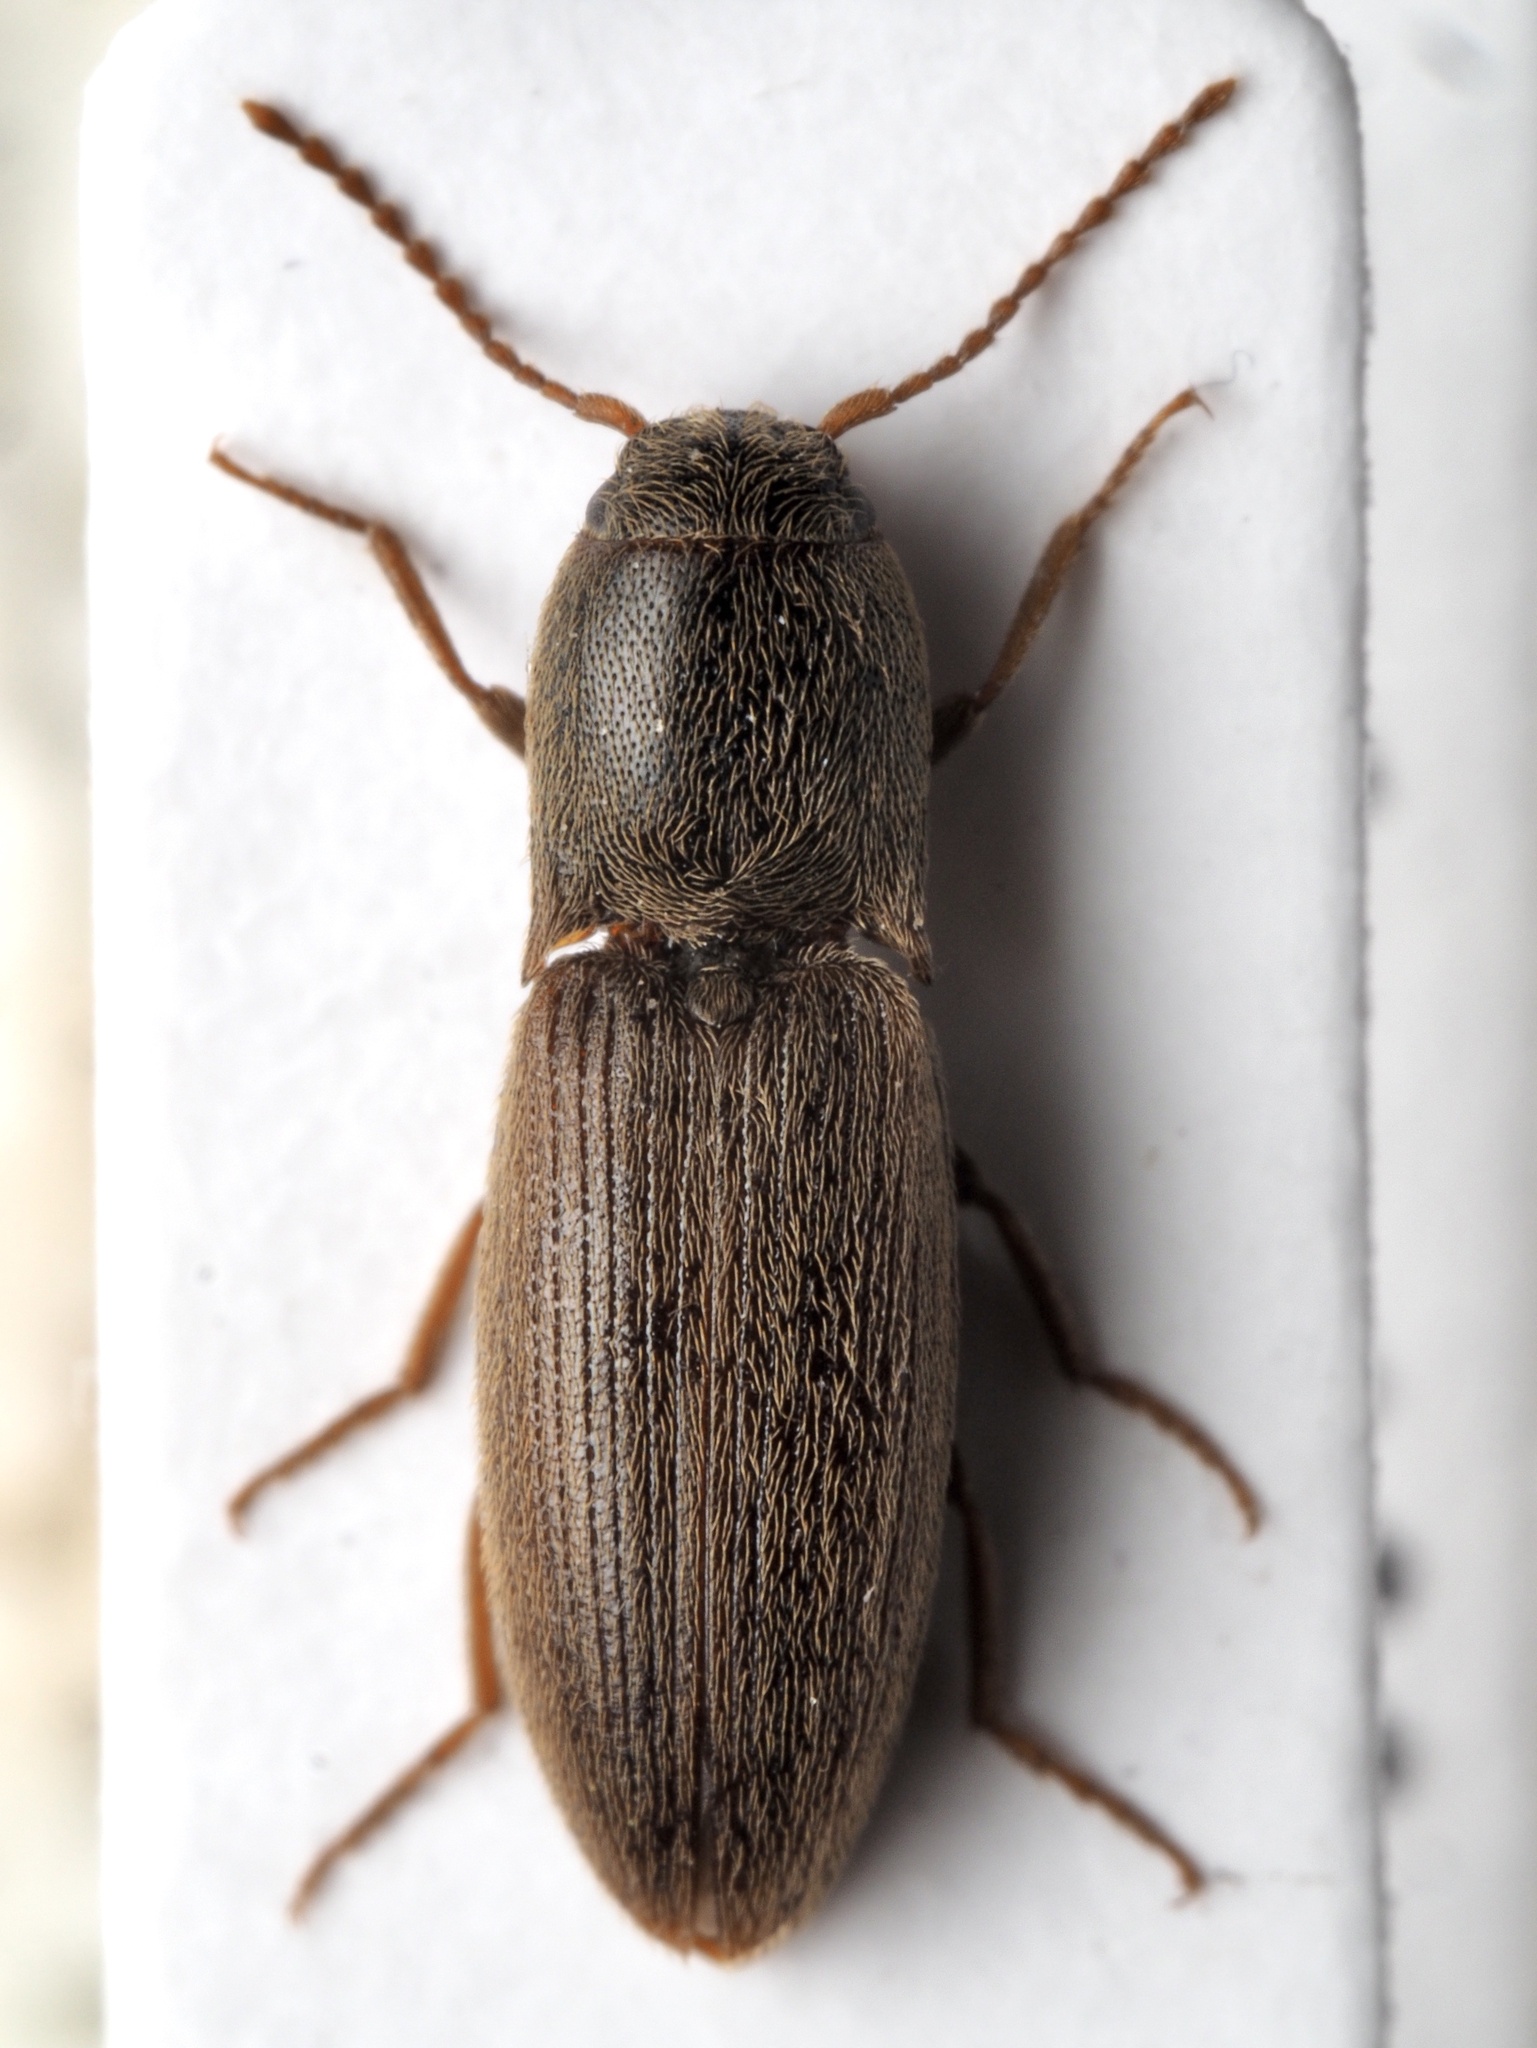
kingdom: Animalia
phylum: Arthropoda
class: Insecta
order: Coleoptera
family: Elateridae
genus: Agriotes
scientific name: Agriotes sputator
